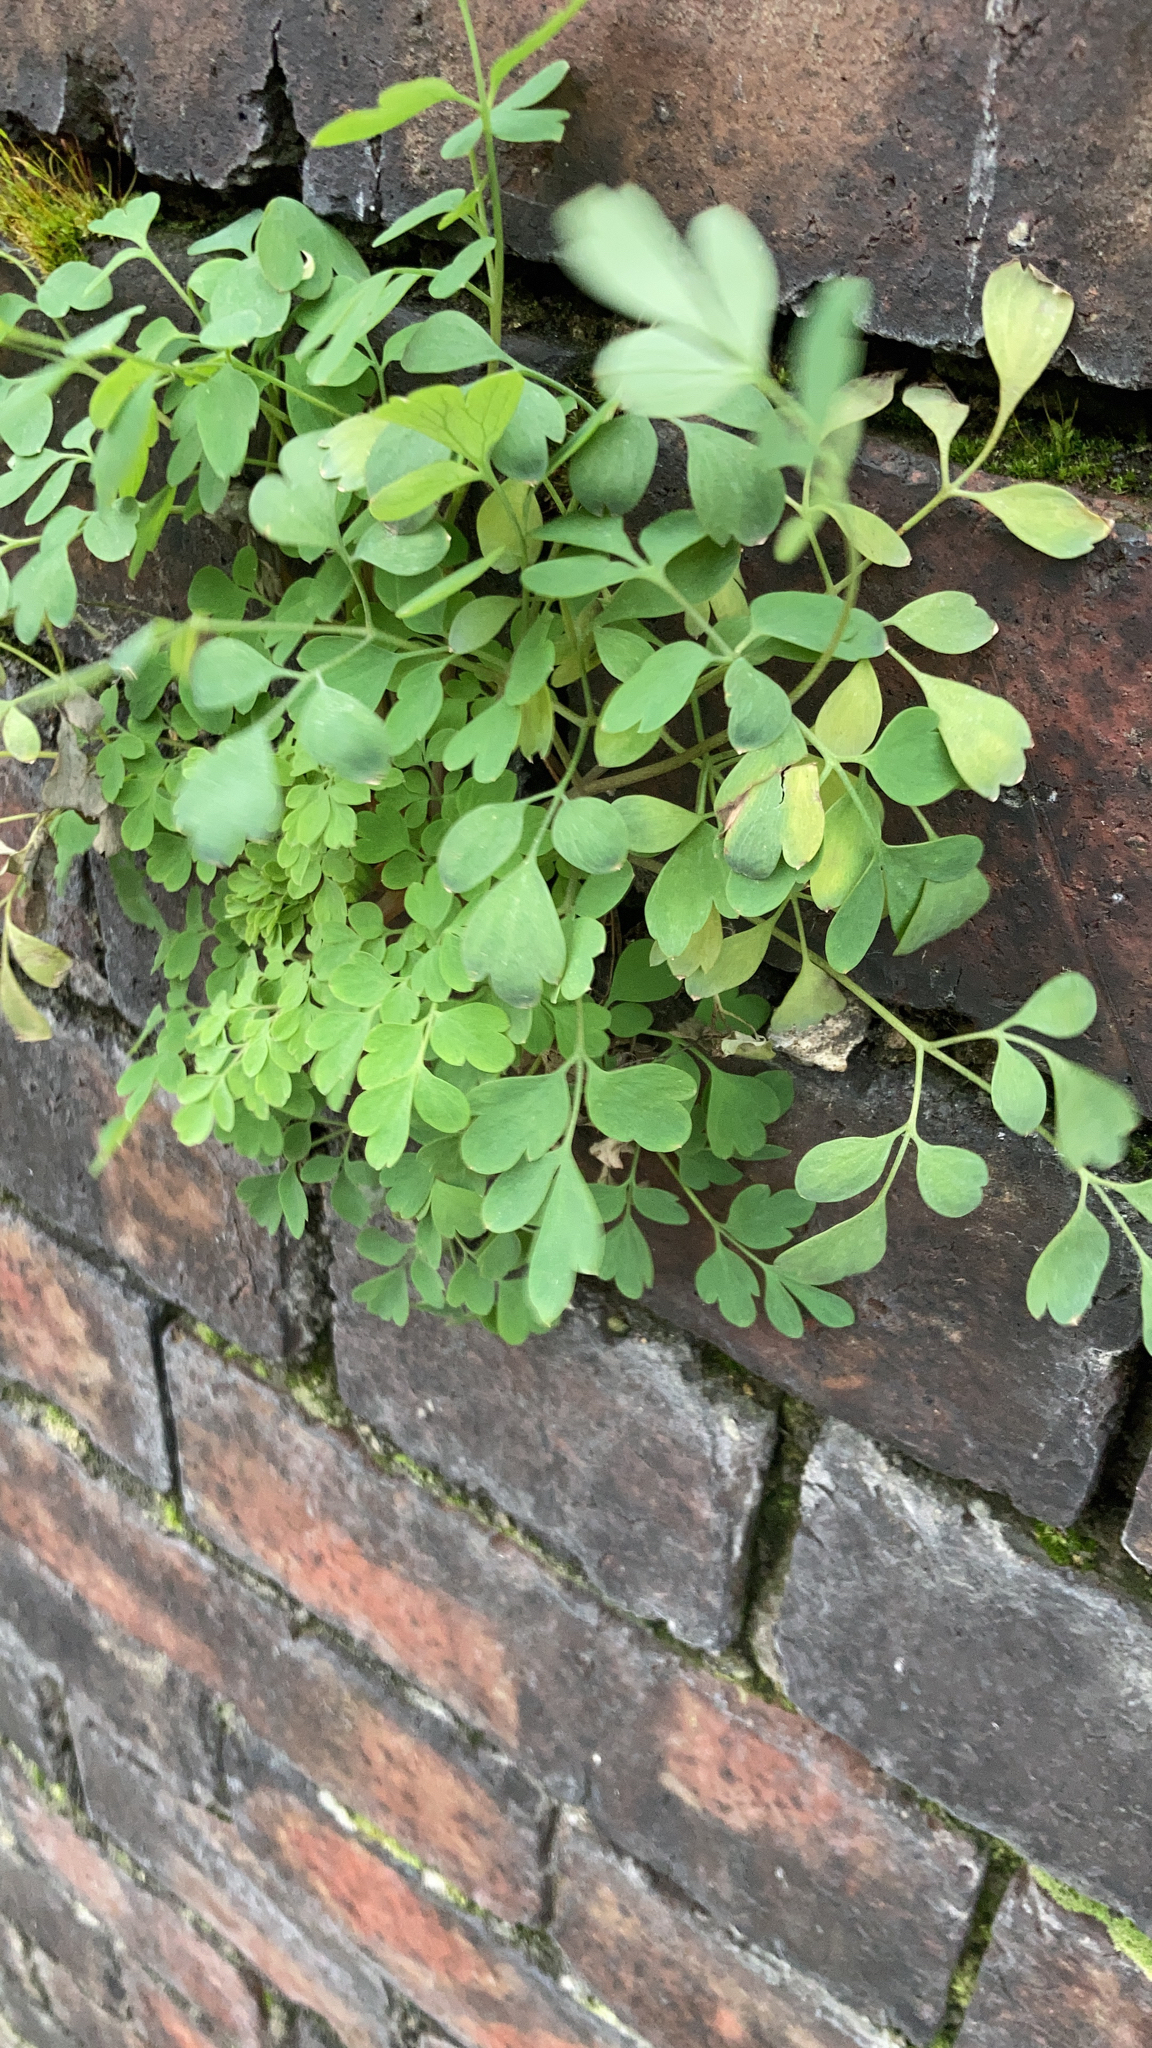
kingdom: Plantae
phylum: Tracheophyta
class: Magnoliopsida
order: Ranunculales
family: Papaveraceae
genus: Pseudofumaria
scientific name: Pseudofumaria lutea
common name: Yellow corydalis
